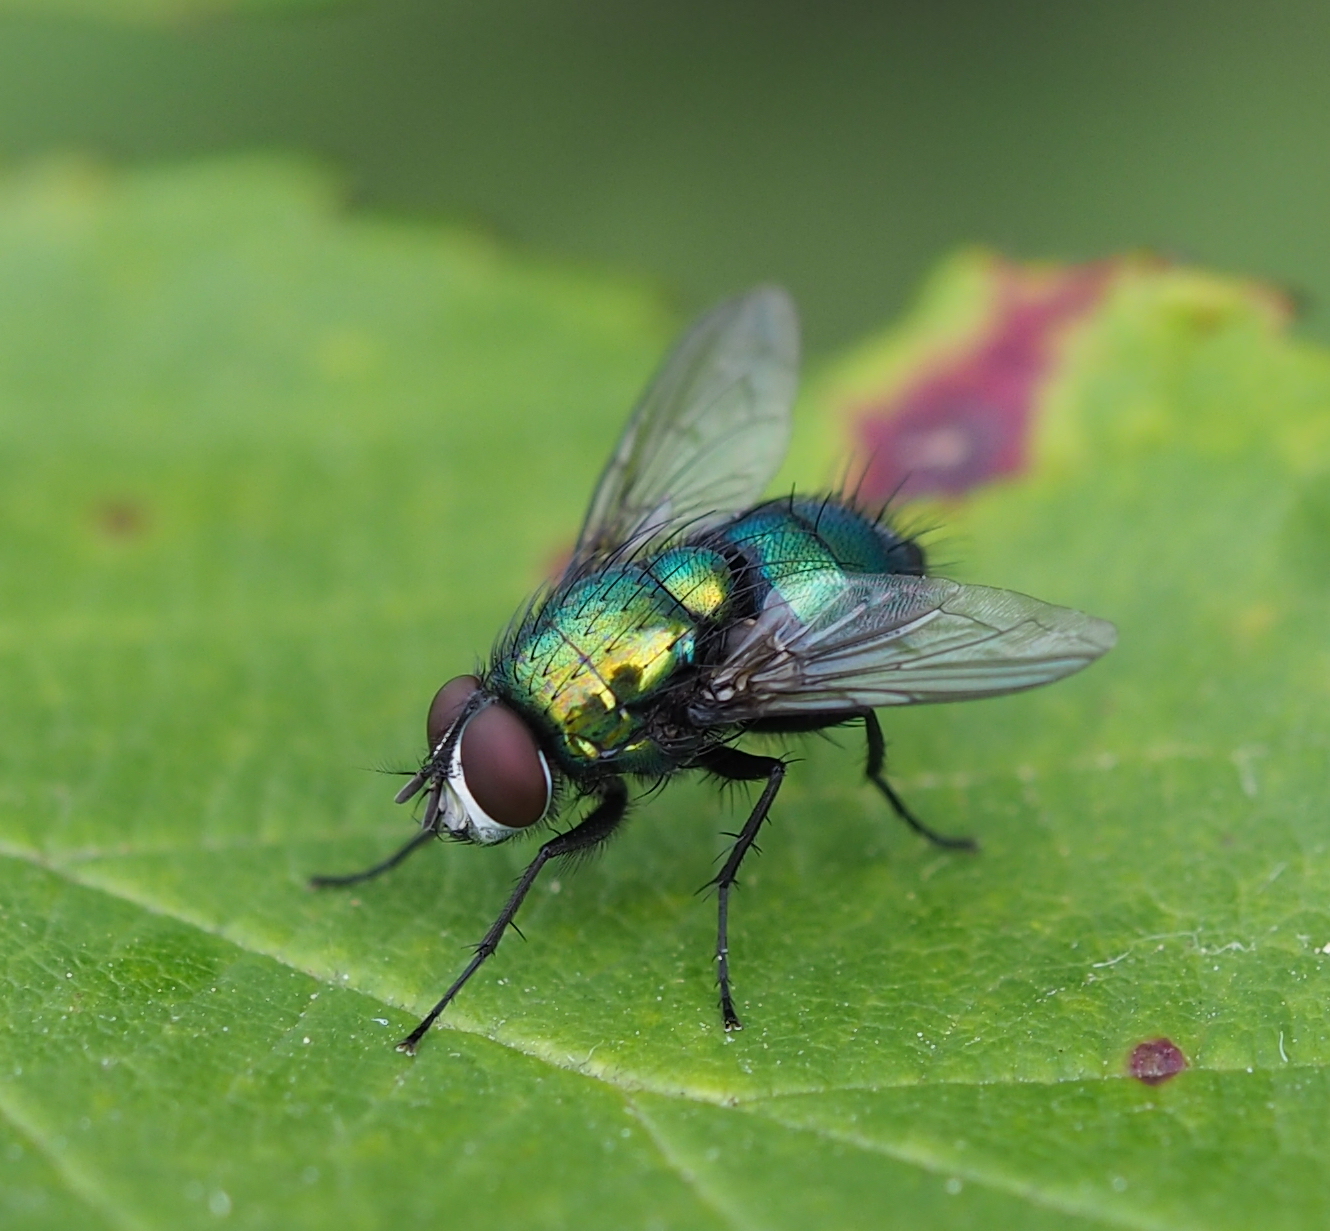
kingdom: Animalia
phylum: Arthropoda
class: Insecta
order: Diptera
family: Calliphoridae
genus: Lucilia
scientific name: Lucilia silvarum
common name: Marsh greenbottle
